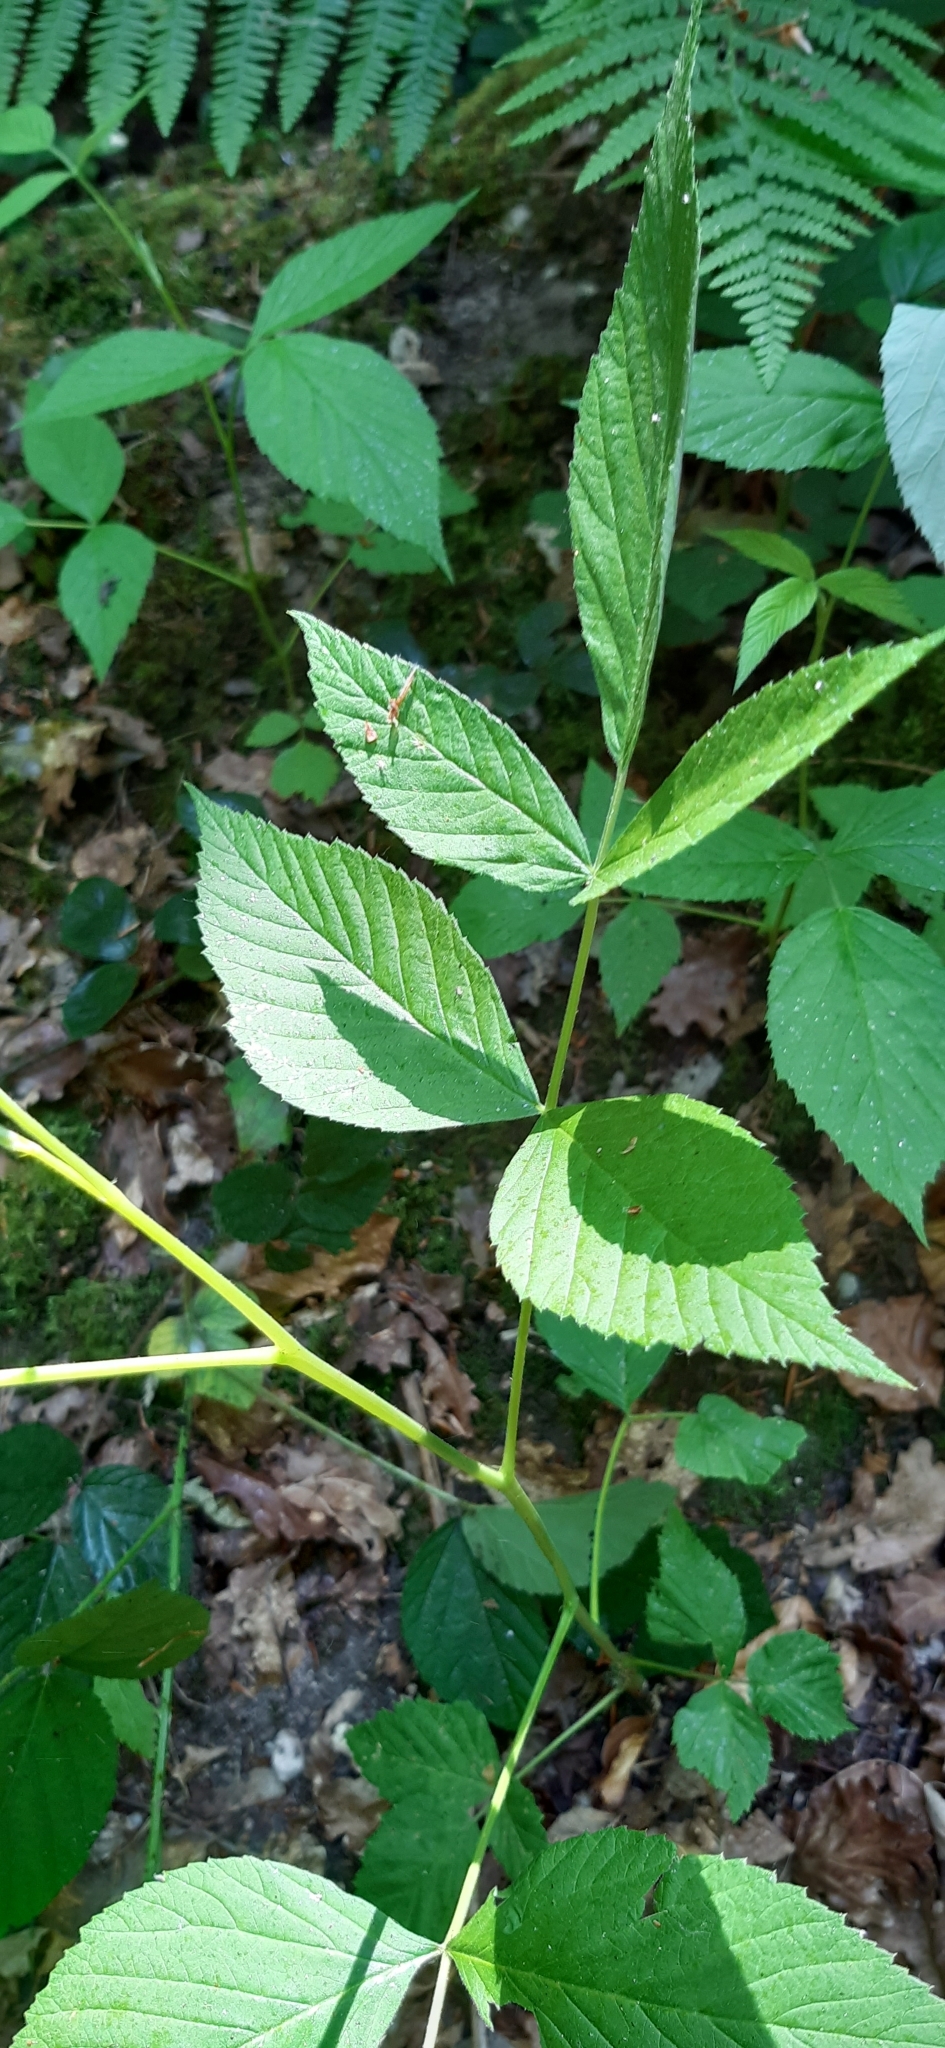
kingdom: Plantae
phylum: Tracheophyta
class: Magnoliopsida
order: Rosales
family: Rosaceae
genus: Rubus
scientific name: Rubus idaeus
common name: Raspberry
